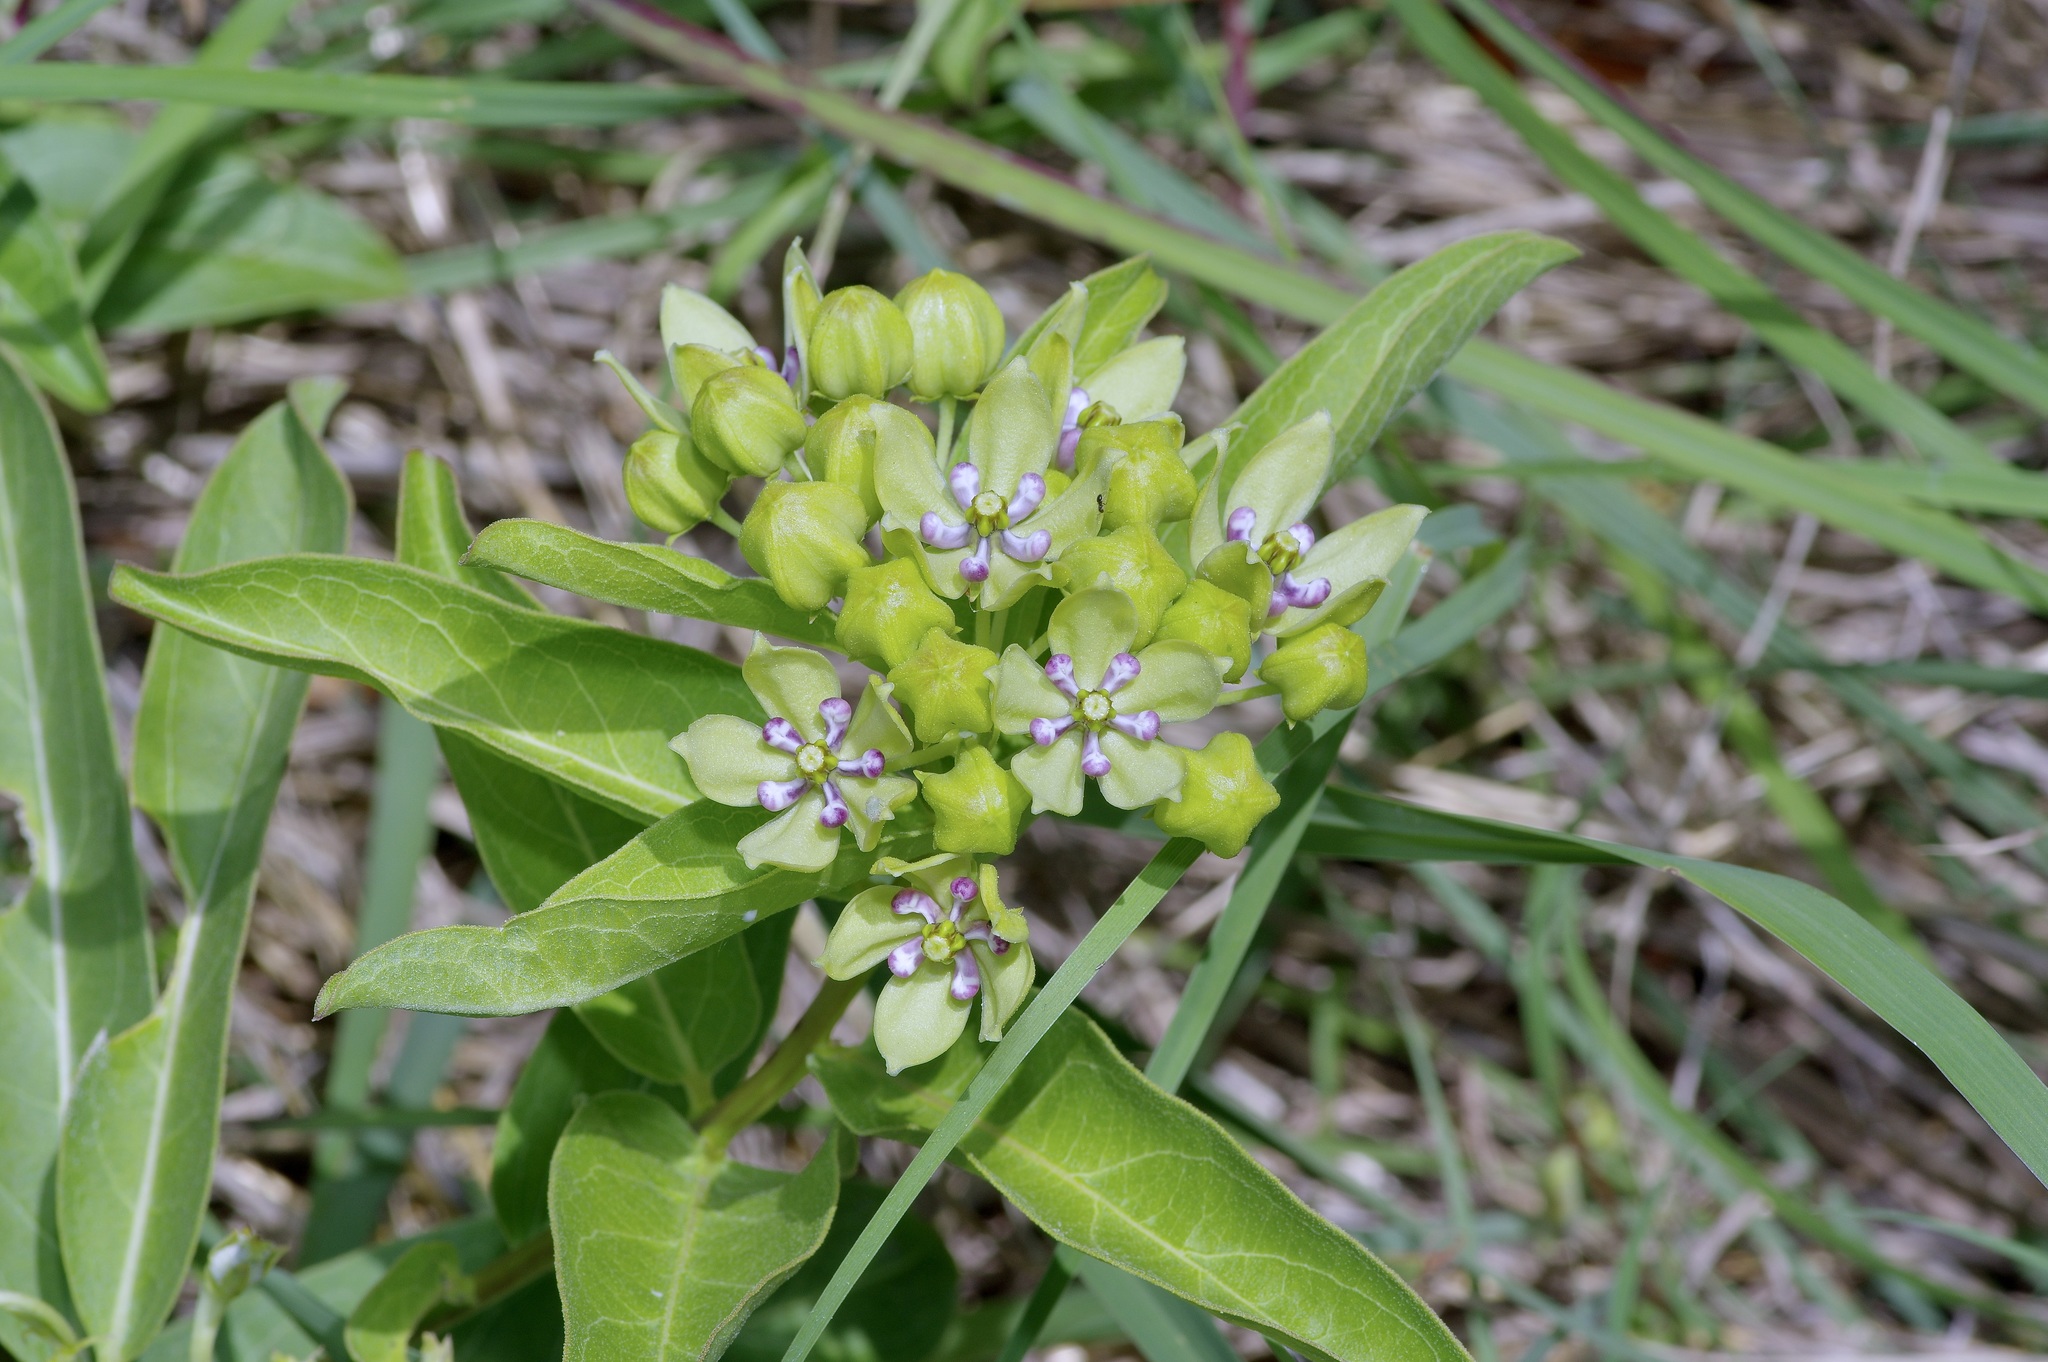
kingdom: Plantae
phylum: Tracheophyta
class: Magnoliopsida
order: Gentianales
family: Apocynaceae
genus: Asclepias
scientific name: Asclepias viridis
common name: Antelope-horns
